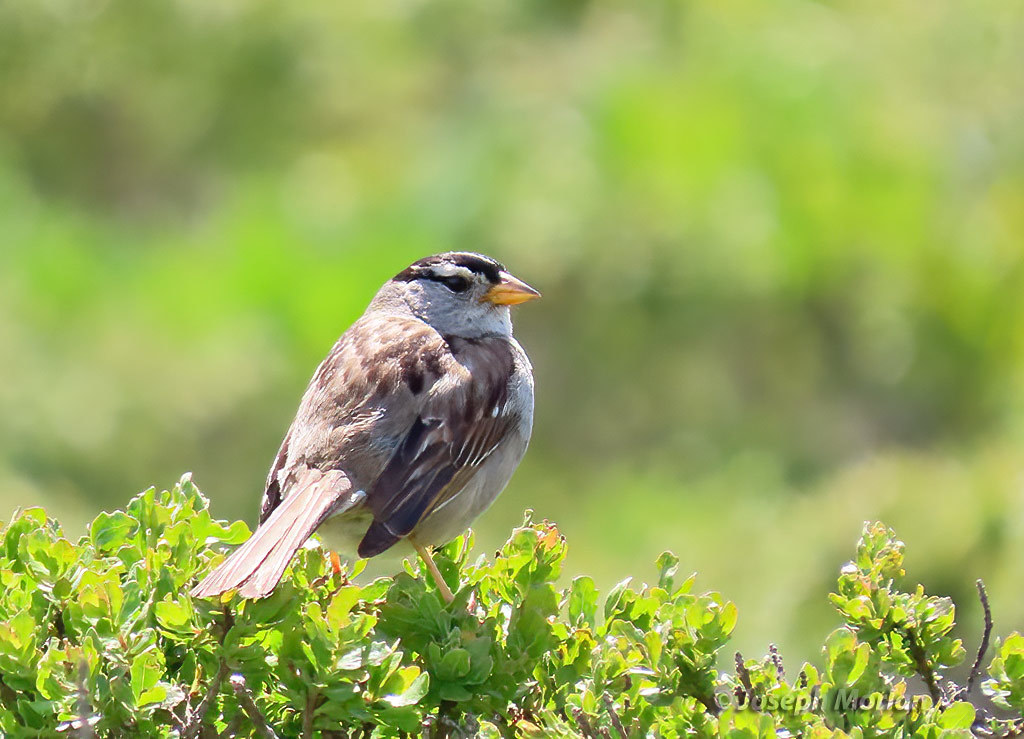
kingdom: Animalia
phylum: Chordata
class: Aves
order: Passeriformes
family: Passerellidae
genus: Zonotrichia
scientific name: Zonotrichia leucophrys
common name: White-crowned sparrow
